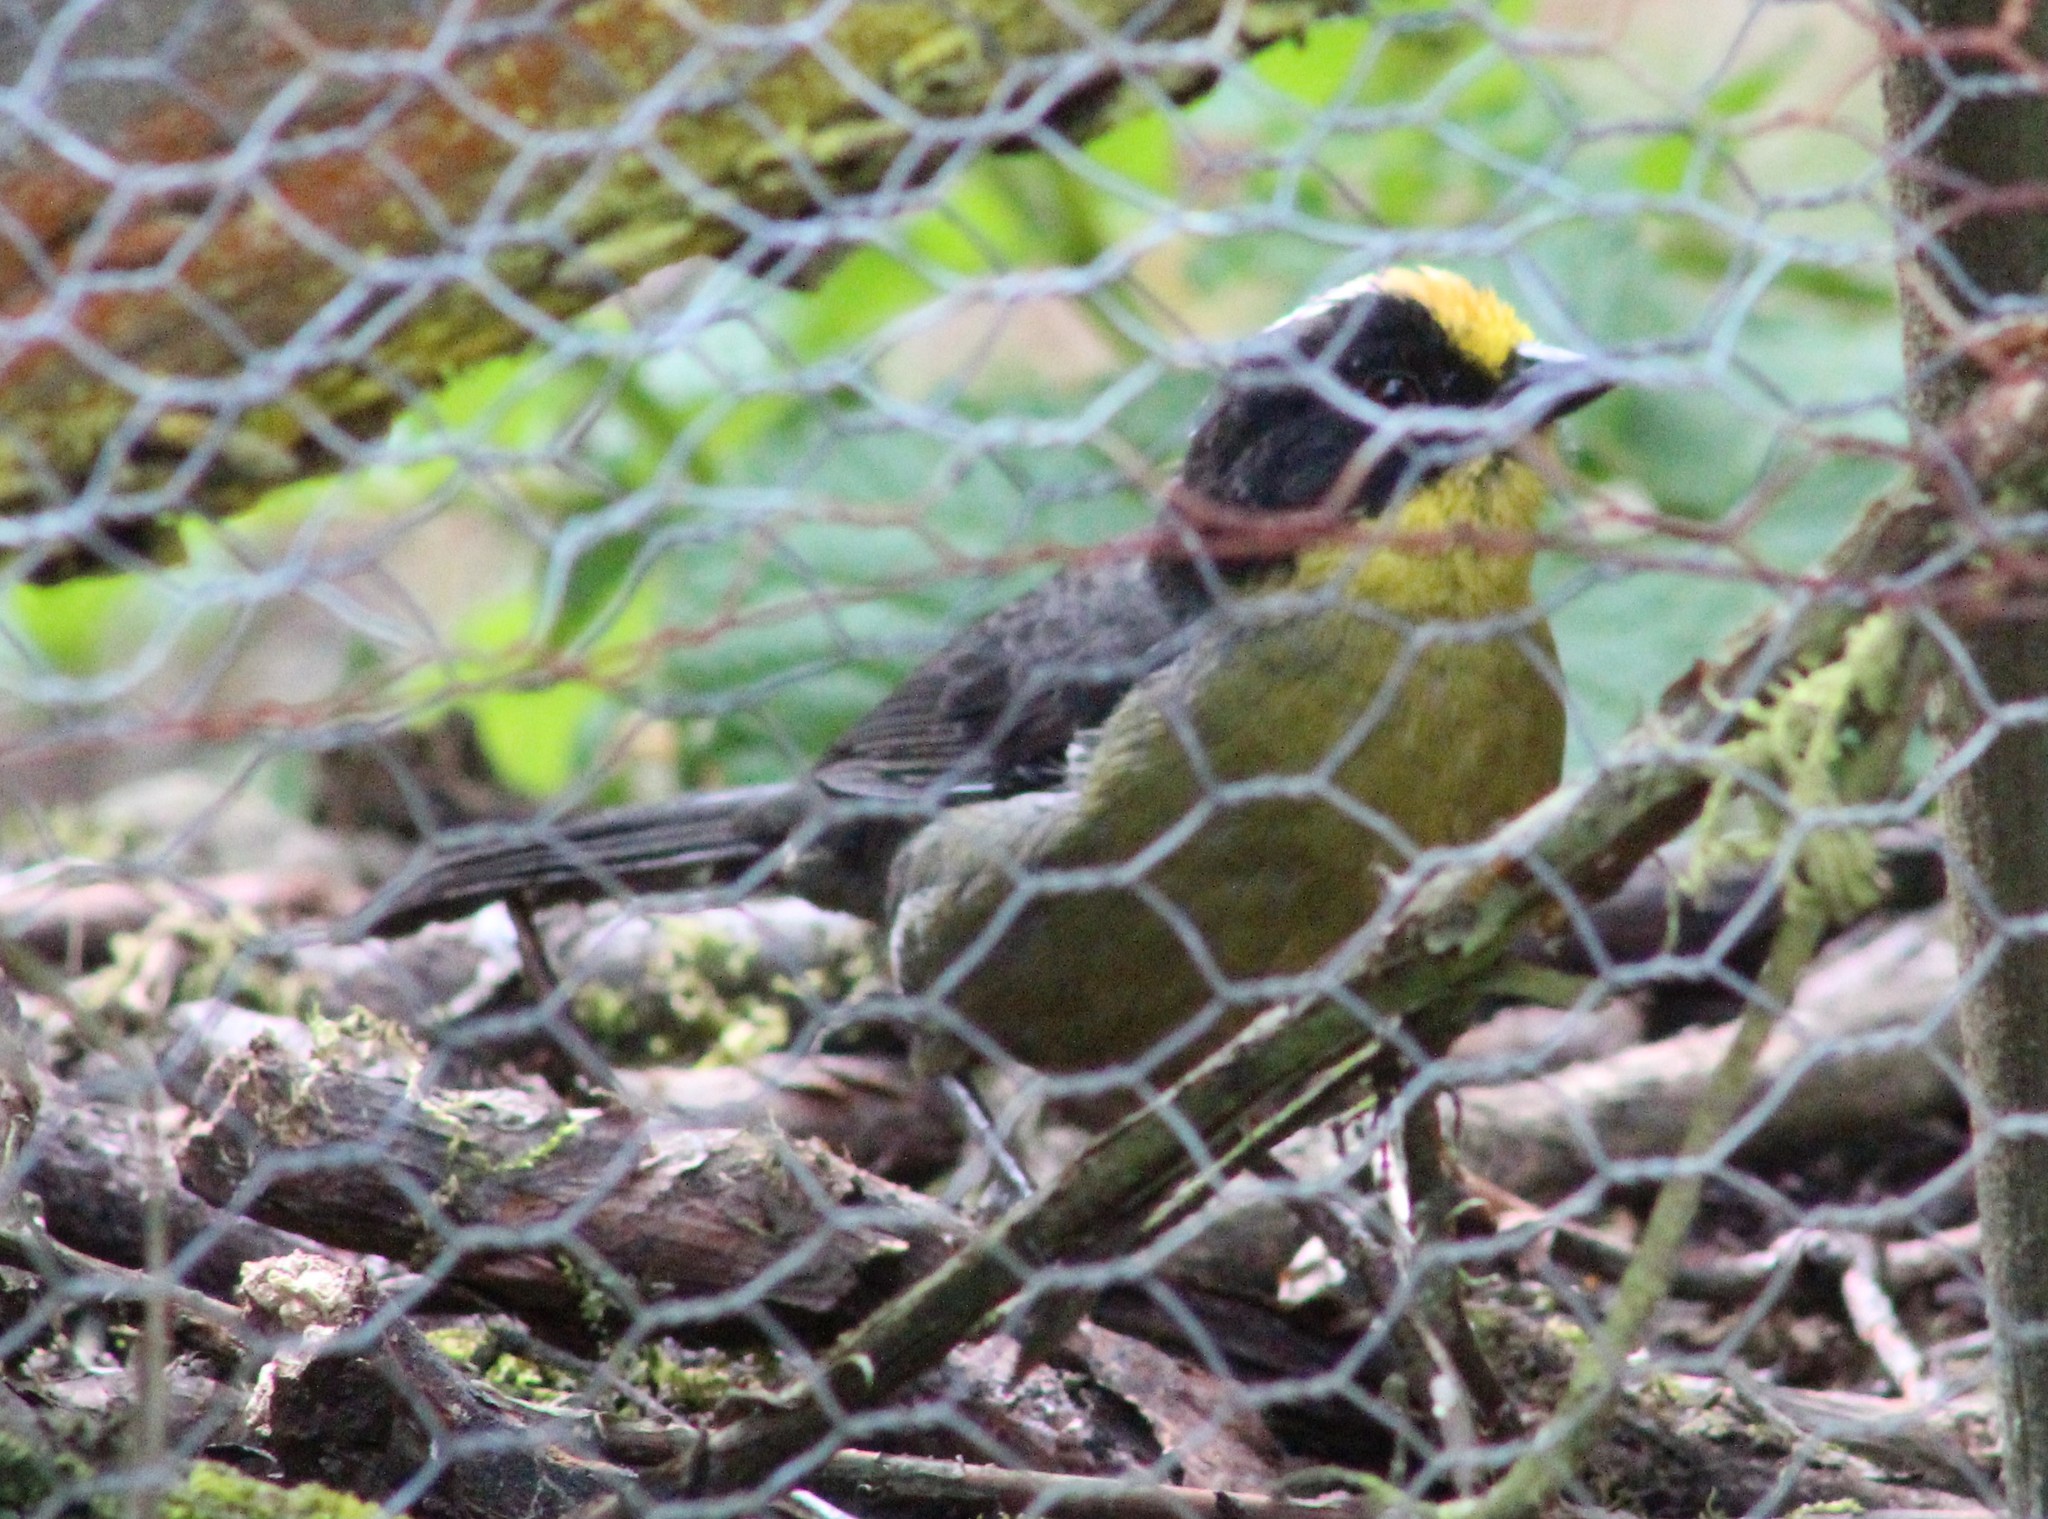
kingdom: Animalia
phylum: Chordata
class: Aves
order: Passeriformes
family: Passerellidae
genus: Atlapetes
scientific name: Atlapetes pallidinucha
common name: Pale-naped brushfinch
